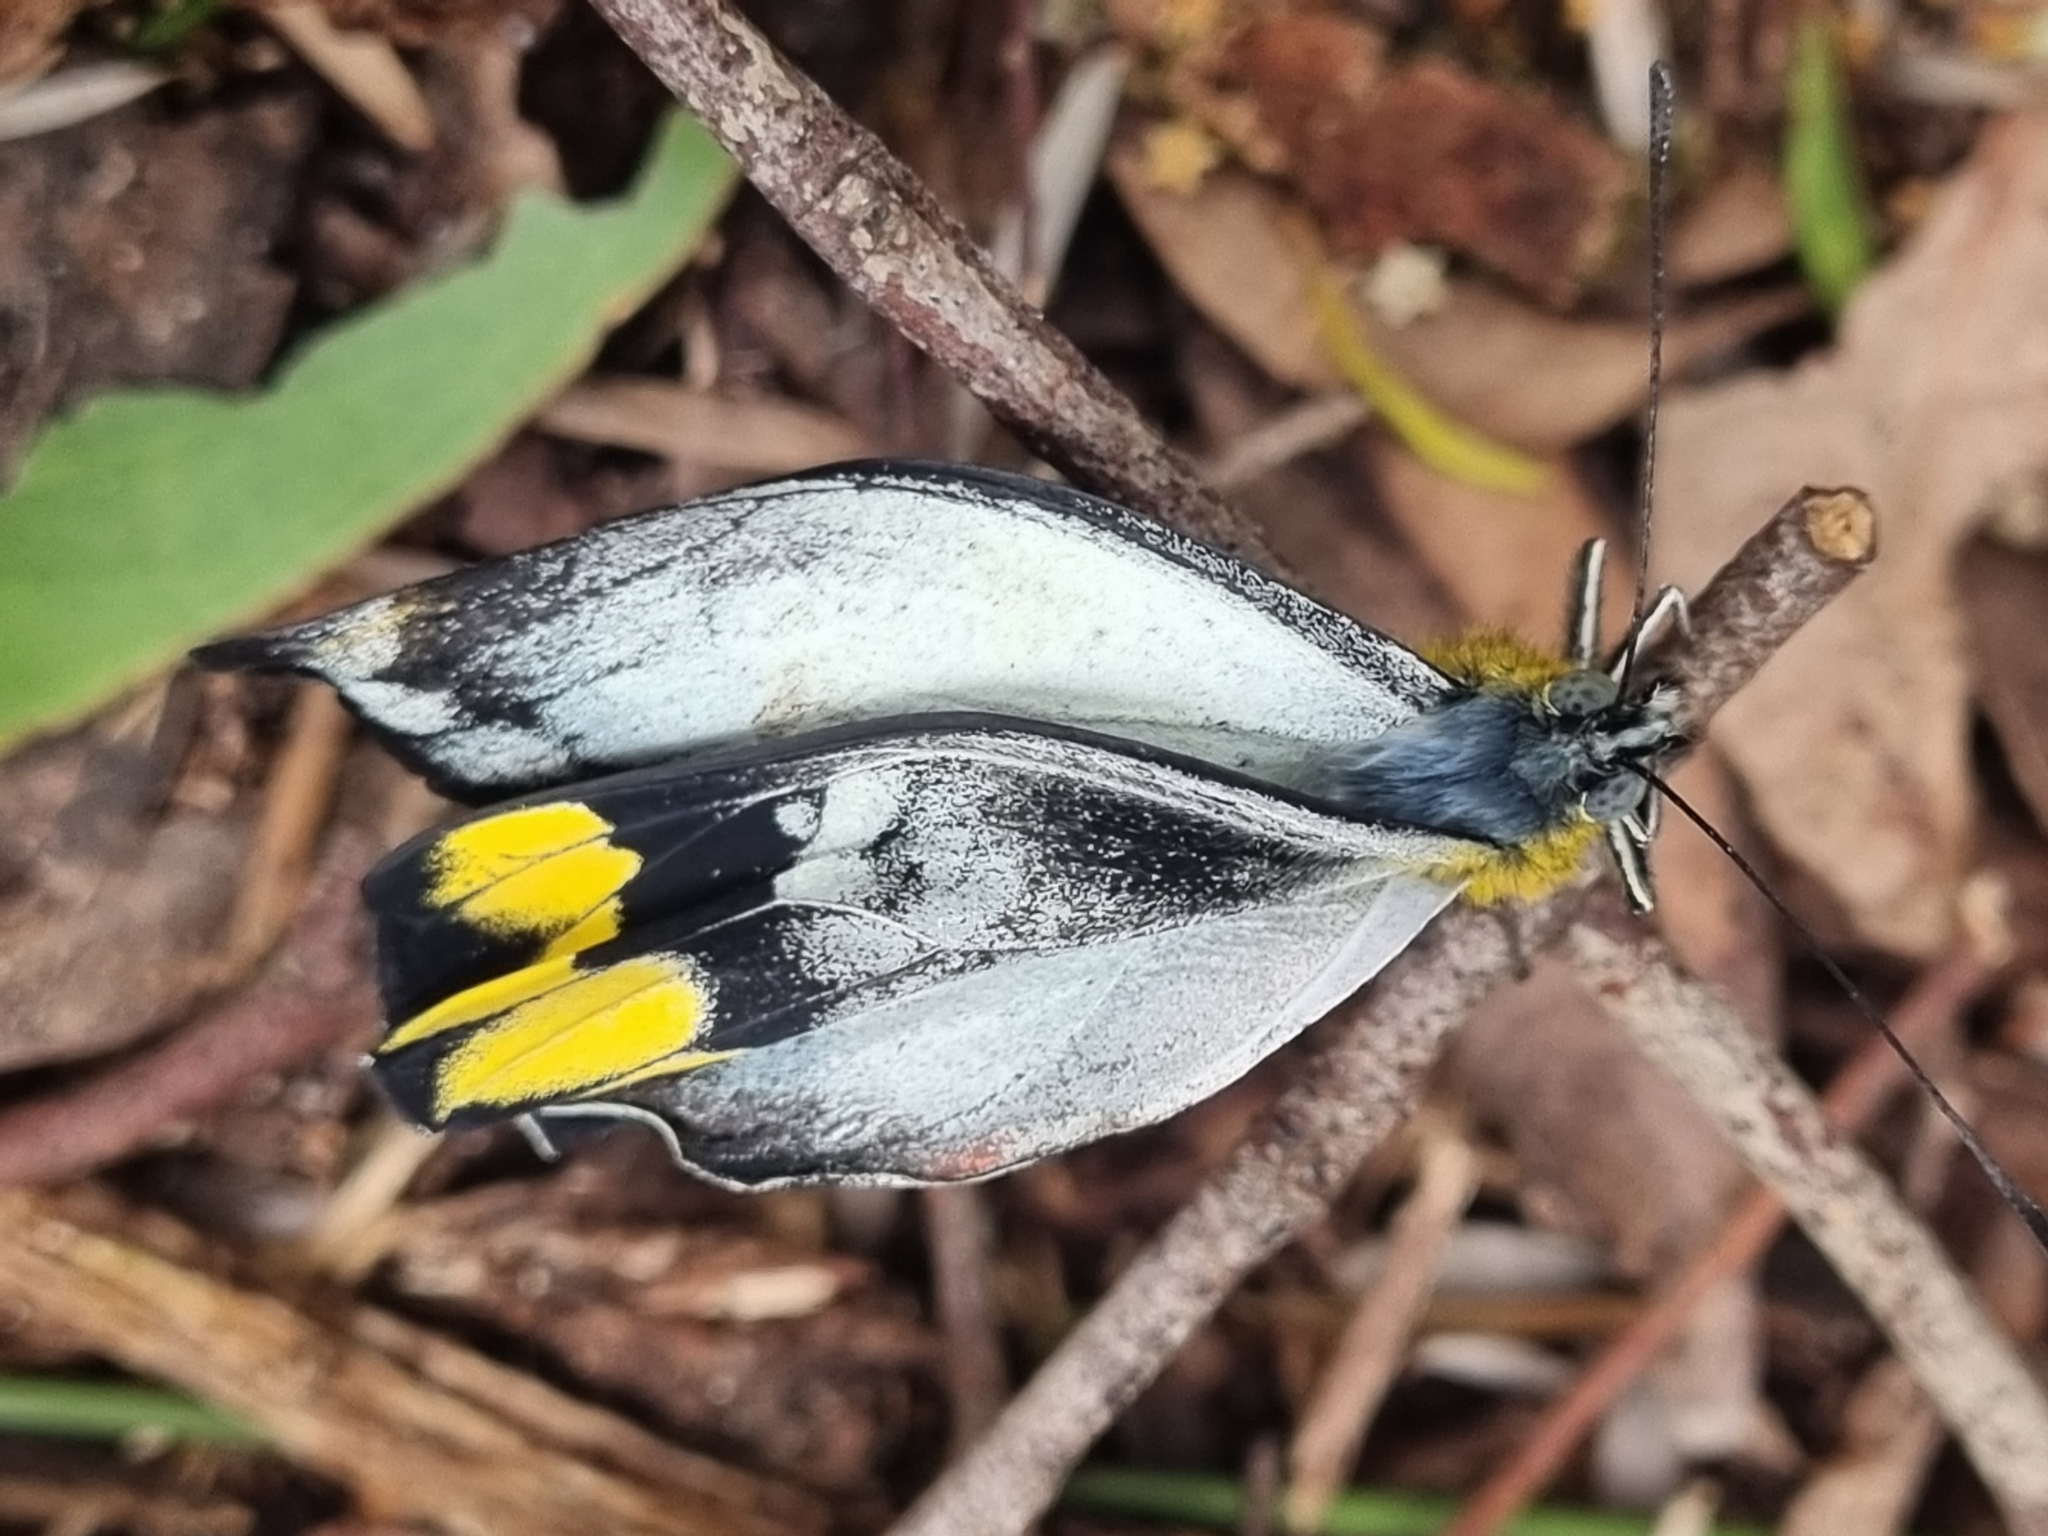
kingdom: Animalia
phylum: Arthropoda
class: Insecta
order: Lepidoptera
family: Pieridae
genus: Delias
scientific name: Delias harpalyce
